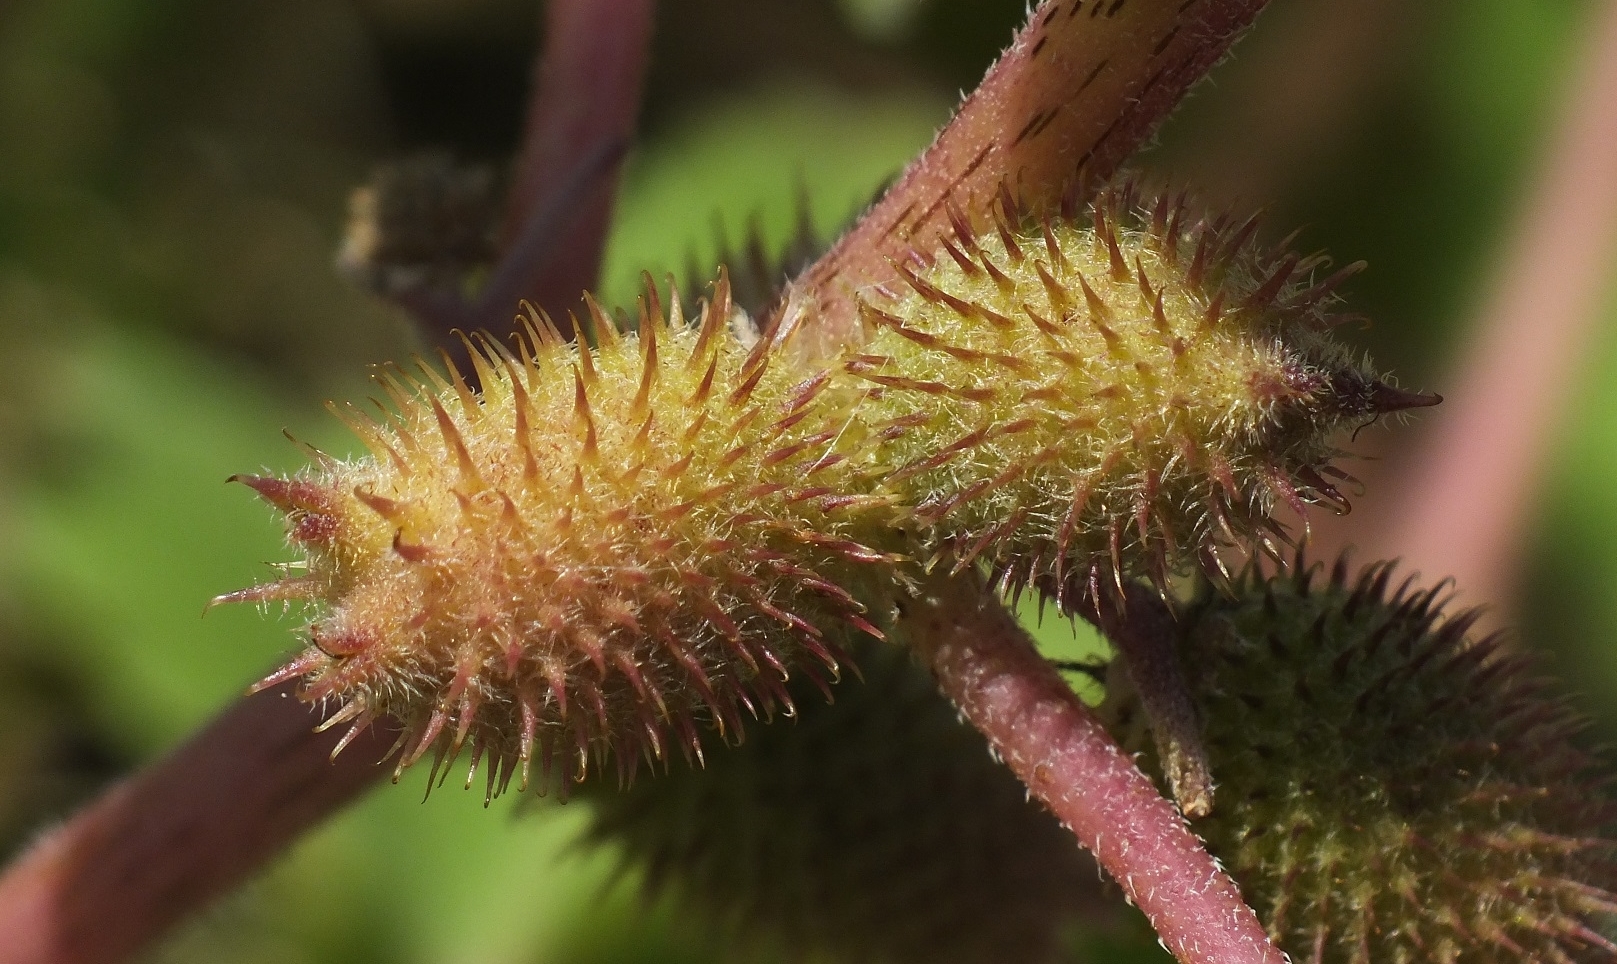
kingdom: Plantae
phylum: Tracheophyta
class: Magnoliopsida
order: Asterales
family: Asteraceae
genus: Xanthium
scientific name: Xanthium orientale
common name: Californian burr
